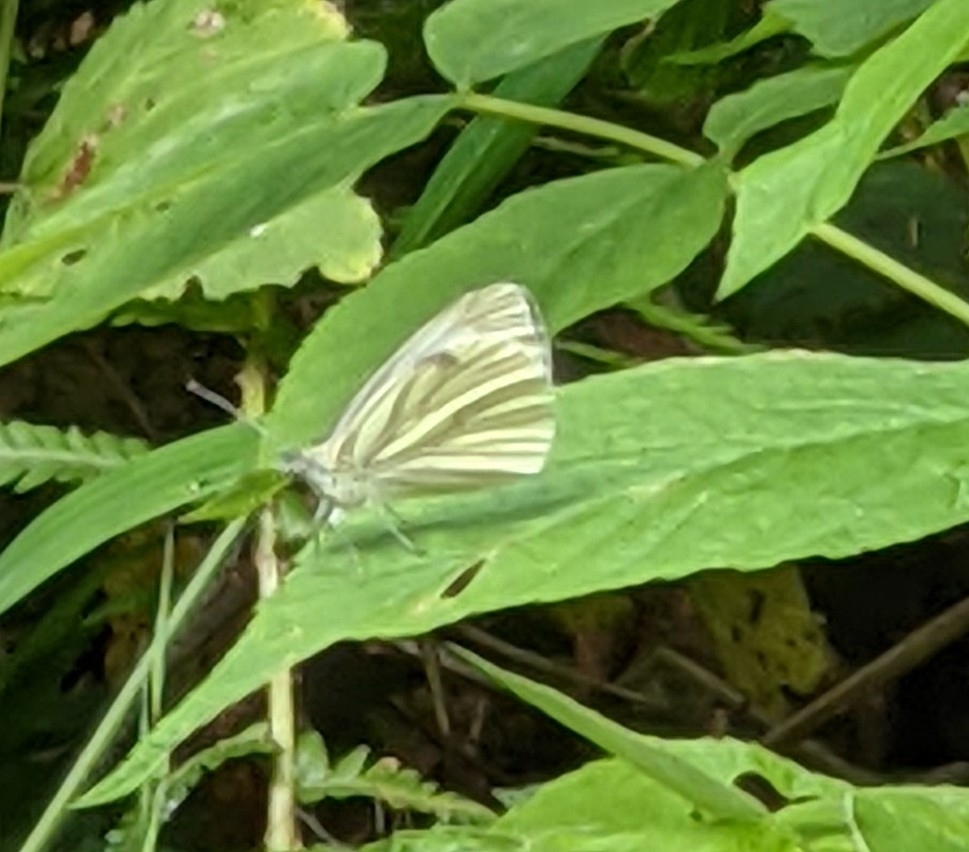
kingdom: Animalia
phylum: Arthropoda
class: Insecta
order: Lepidoptera
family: Pieridae
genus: Pieris
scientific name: Pieris napi
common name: Green-veined white
